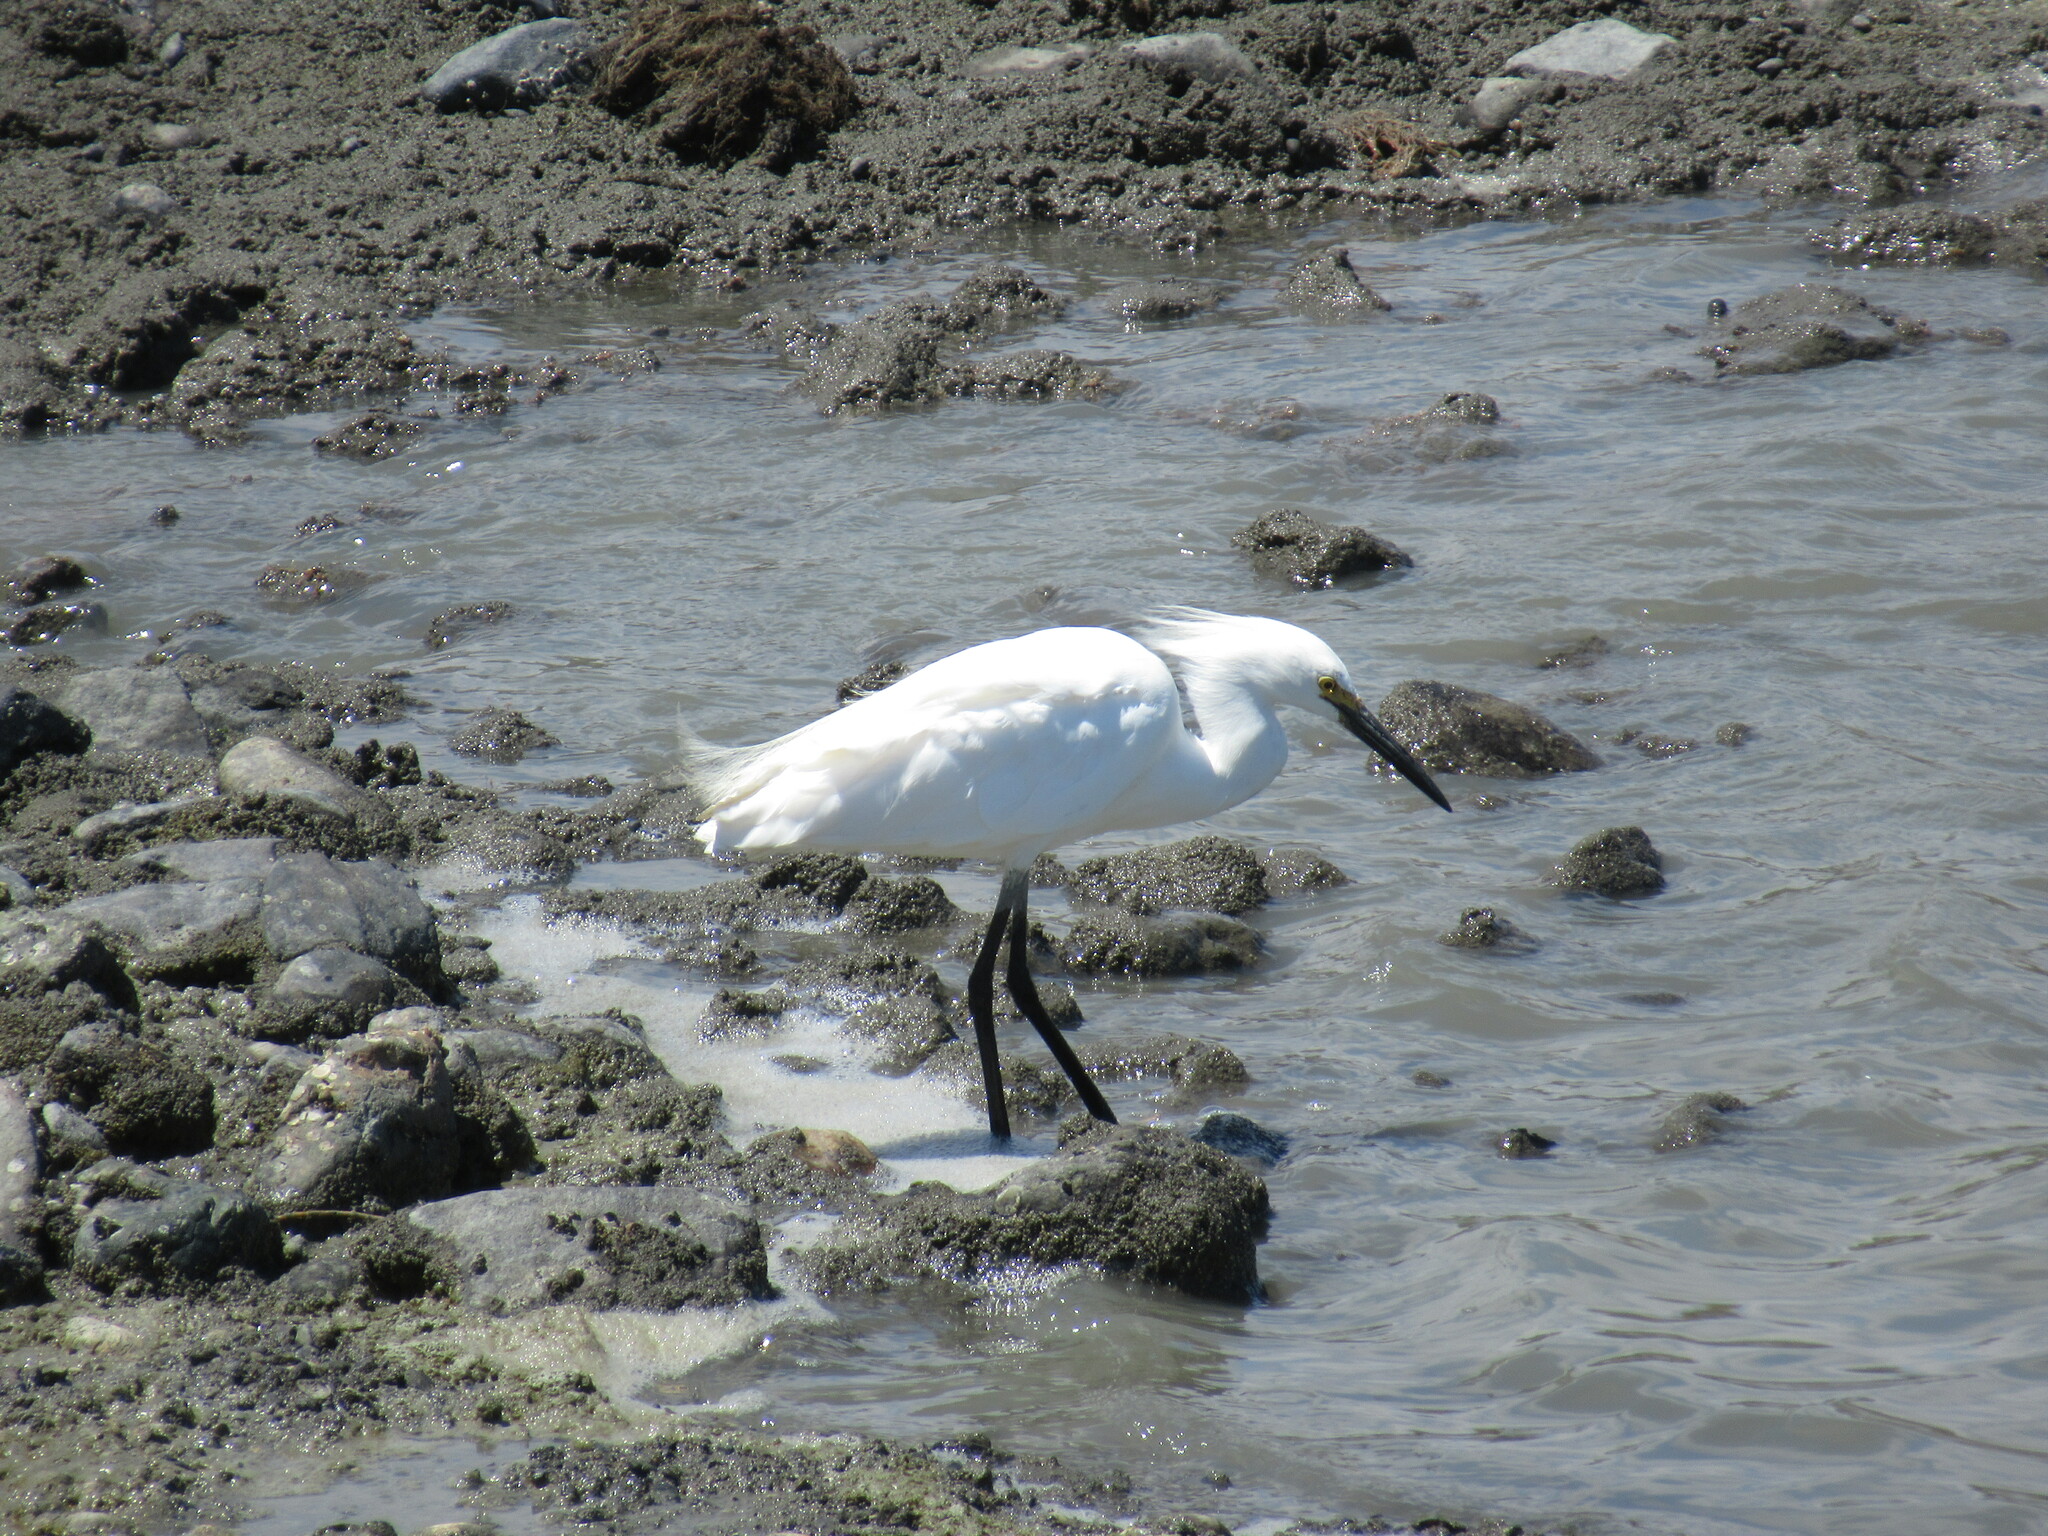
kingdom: Animalia
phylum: Chordata
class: Aves
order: Pelecaniformes
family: Ardeidae
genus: Egretta
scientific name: Egretta thula
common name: Snowy egret
